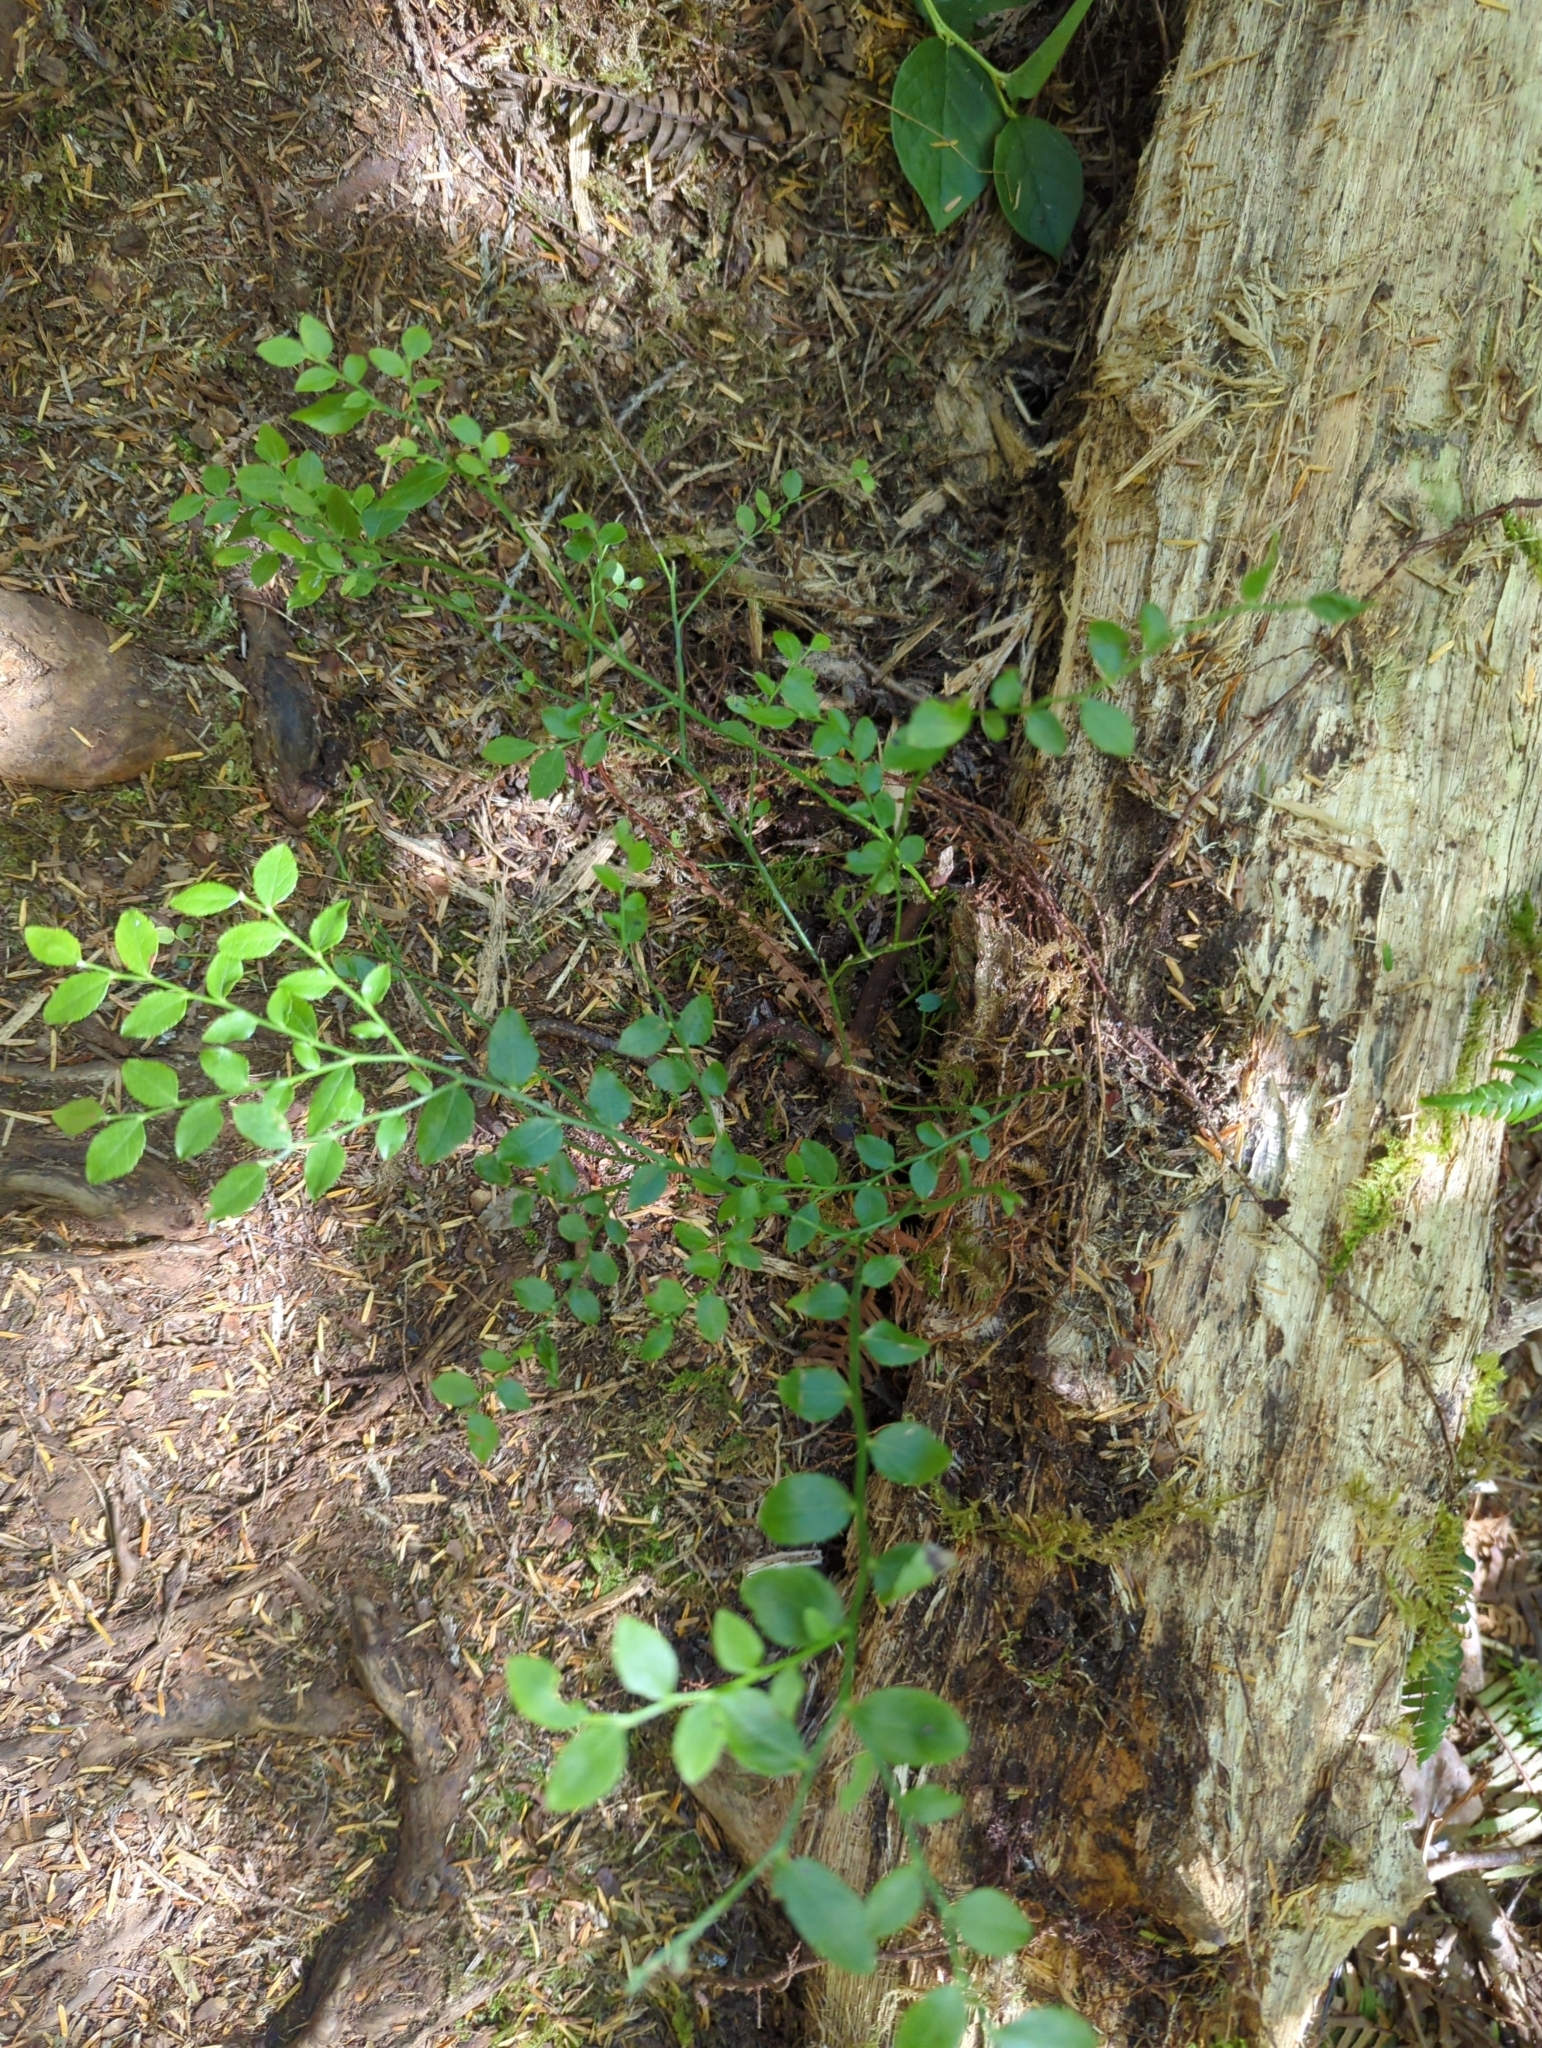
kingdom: Plantae
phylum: Tracheophyta
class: Magnoliopsida
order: Ericales
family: Ericaceae
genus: Vaccinium
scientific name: Vaccinium parvifolium
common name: Red-huckleberry
